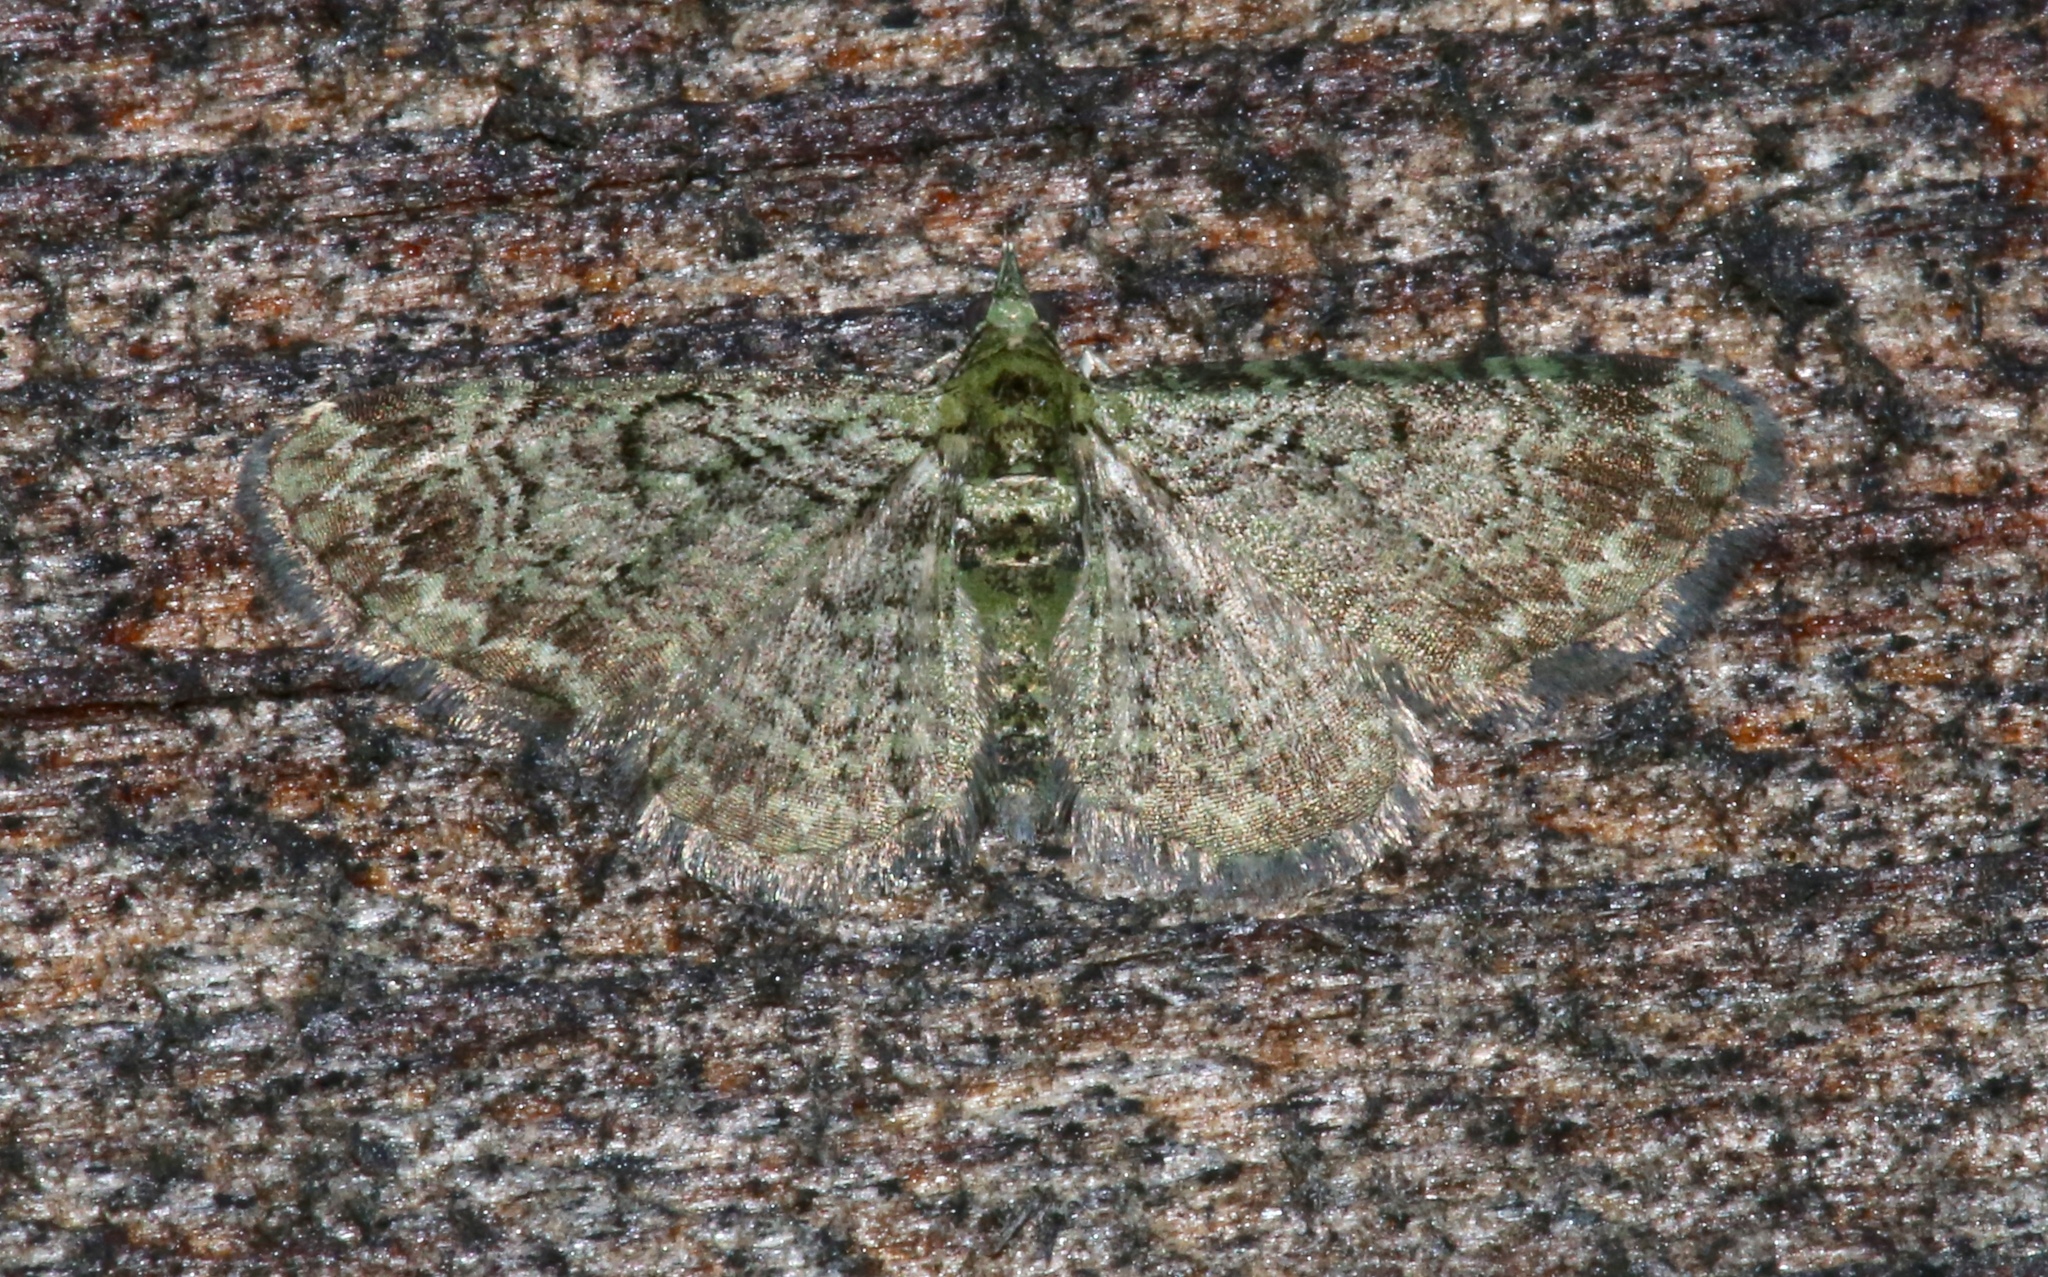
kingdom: Animalia
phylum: Arthropoda
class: Insecta
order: Lepidoptera
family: Geometridae
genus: Pasiphila
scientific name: Pasiphila rectangulata
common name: Green pug
